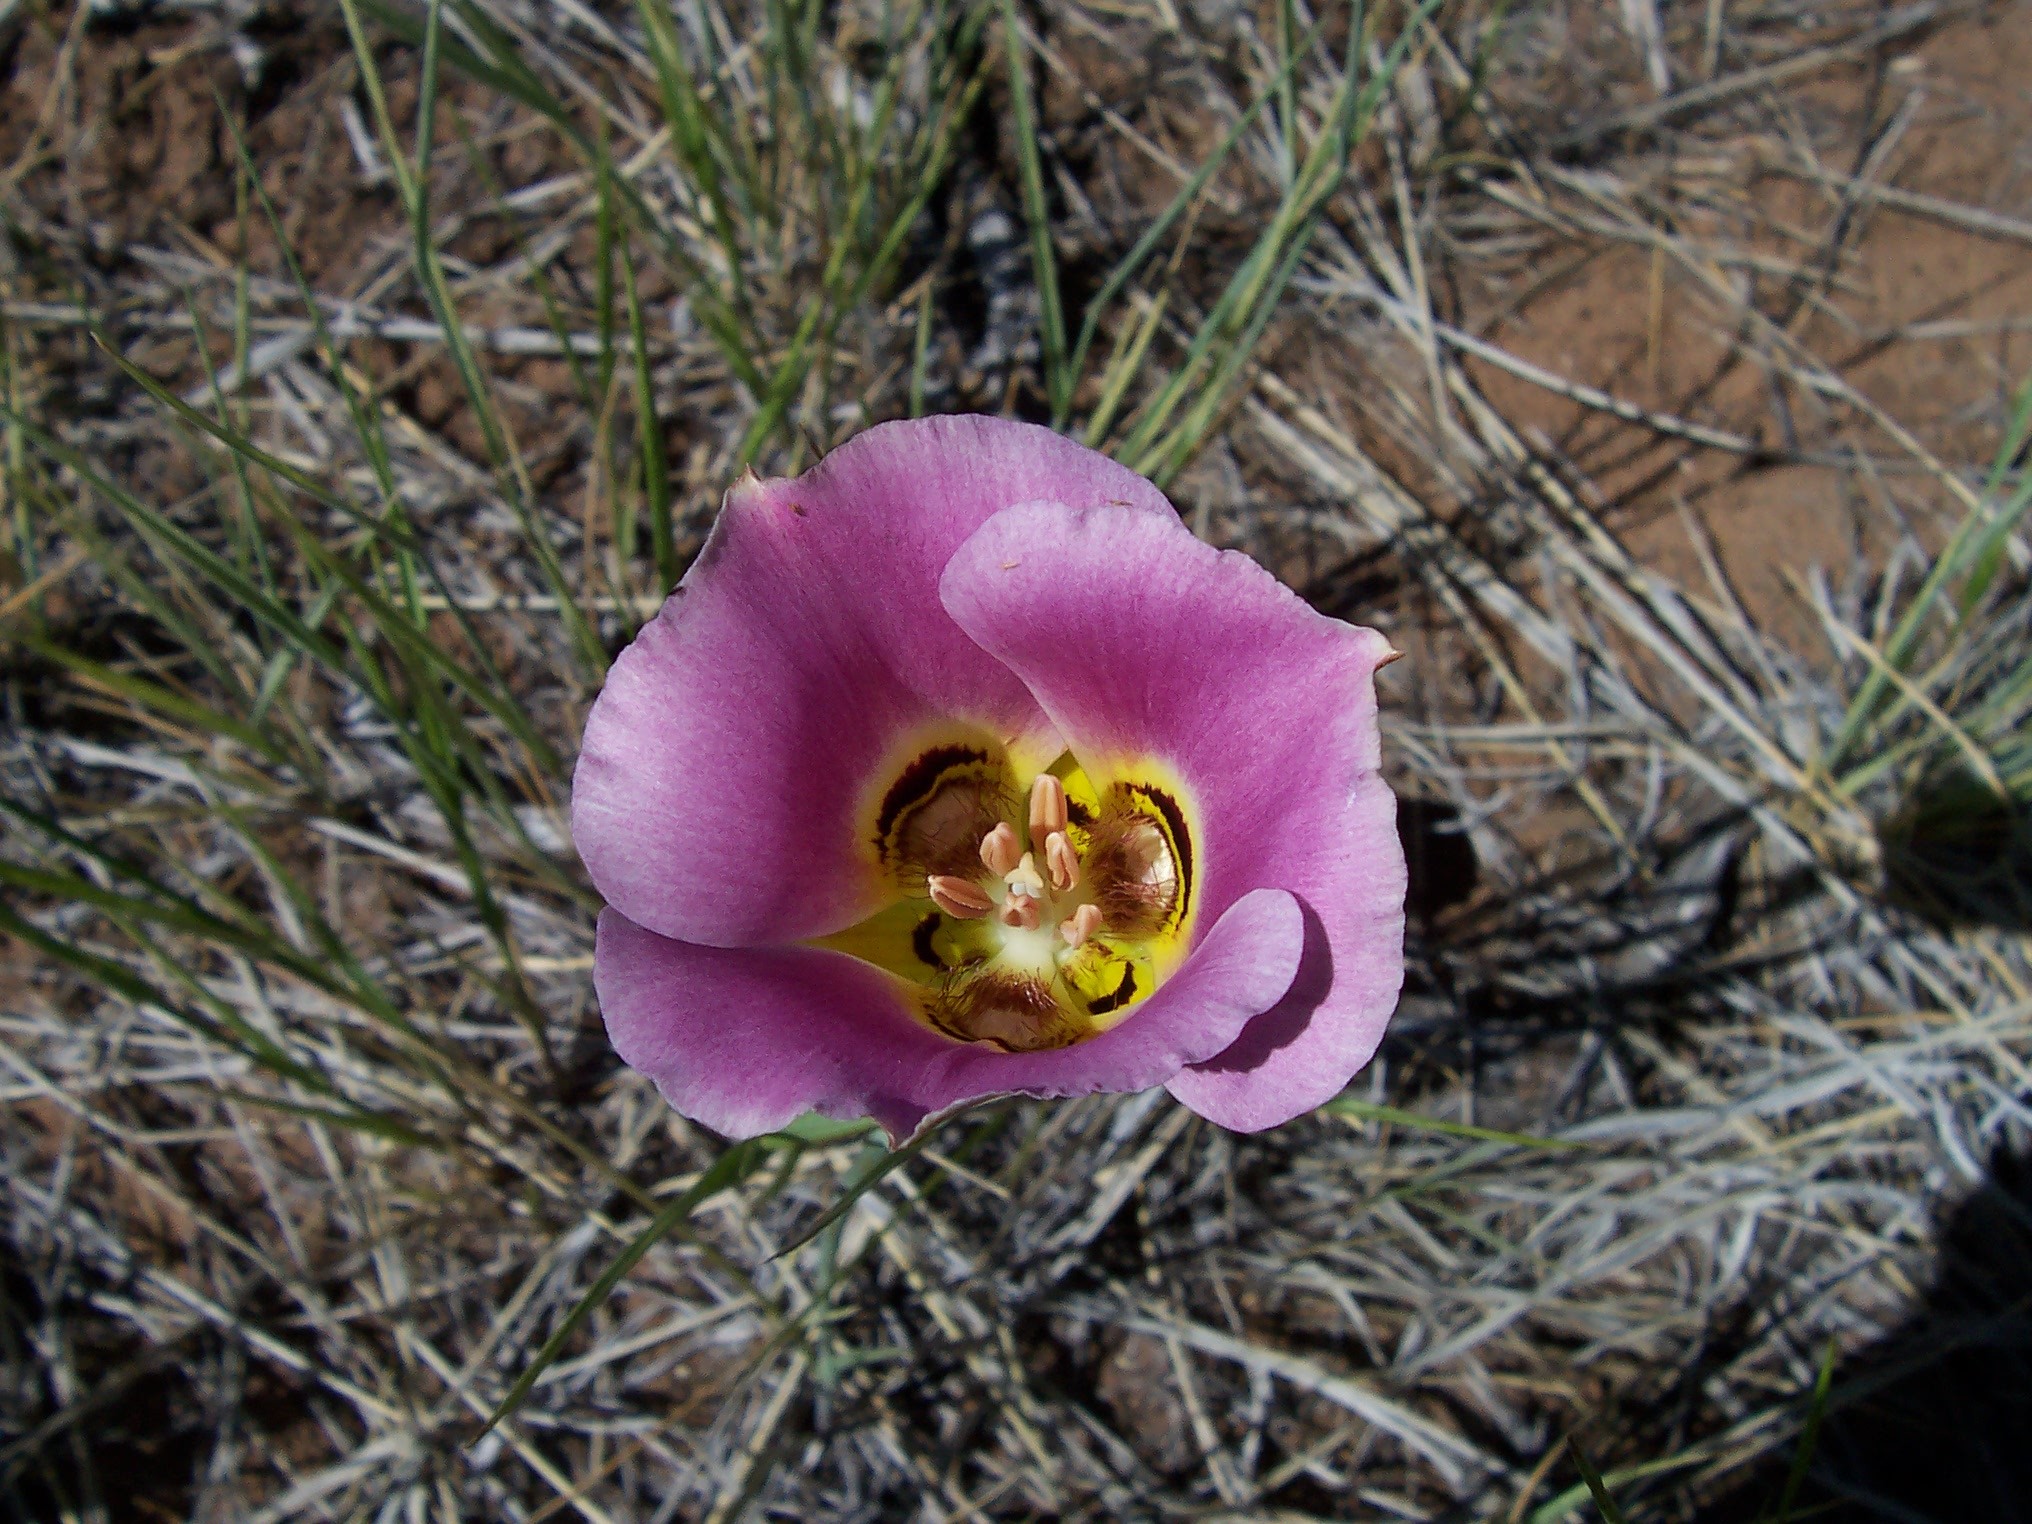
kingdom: Plantae
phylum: Tracheophyta
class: Liliopsida
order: Liliales
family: Liliaceae
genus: Calochortus
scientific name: Calochortus nuttallii
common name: Sego-lily
